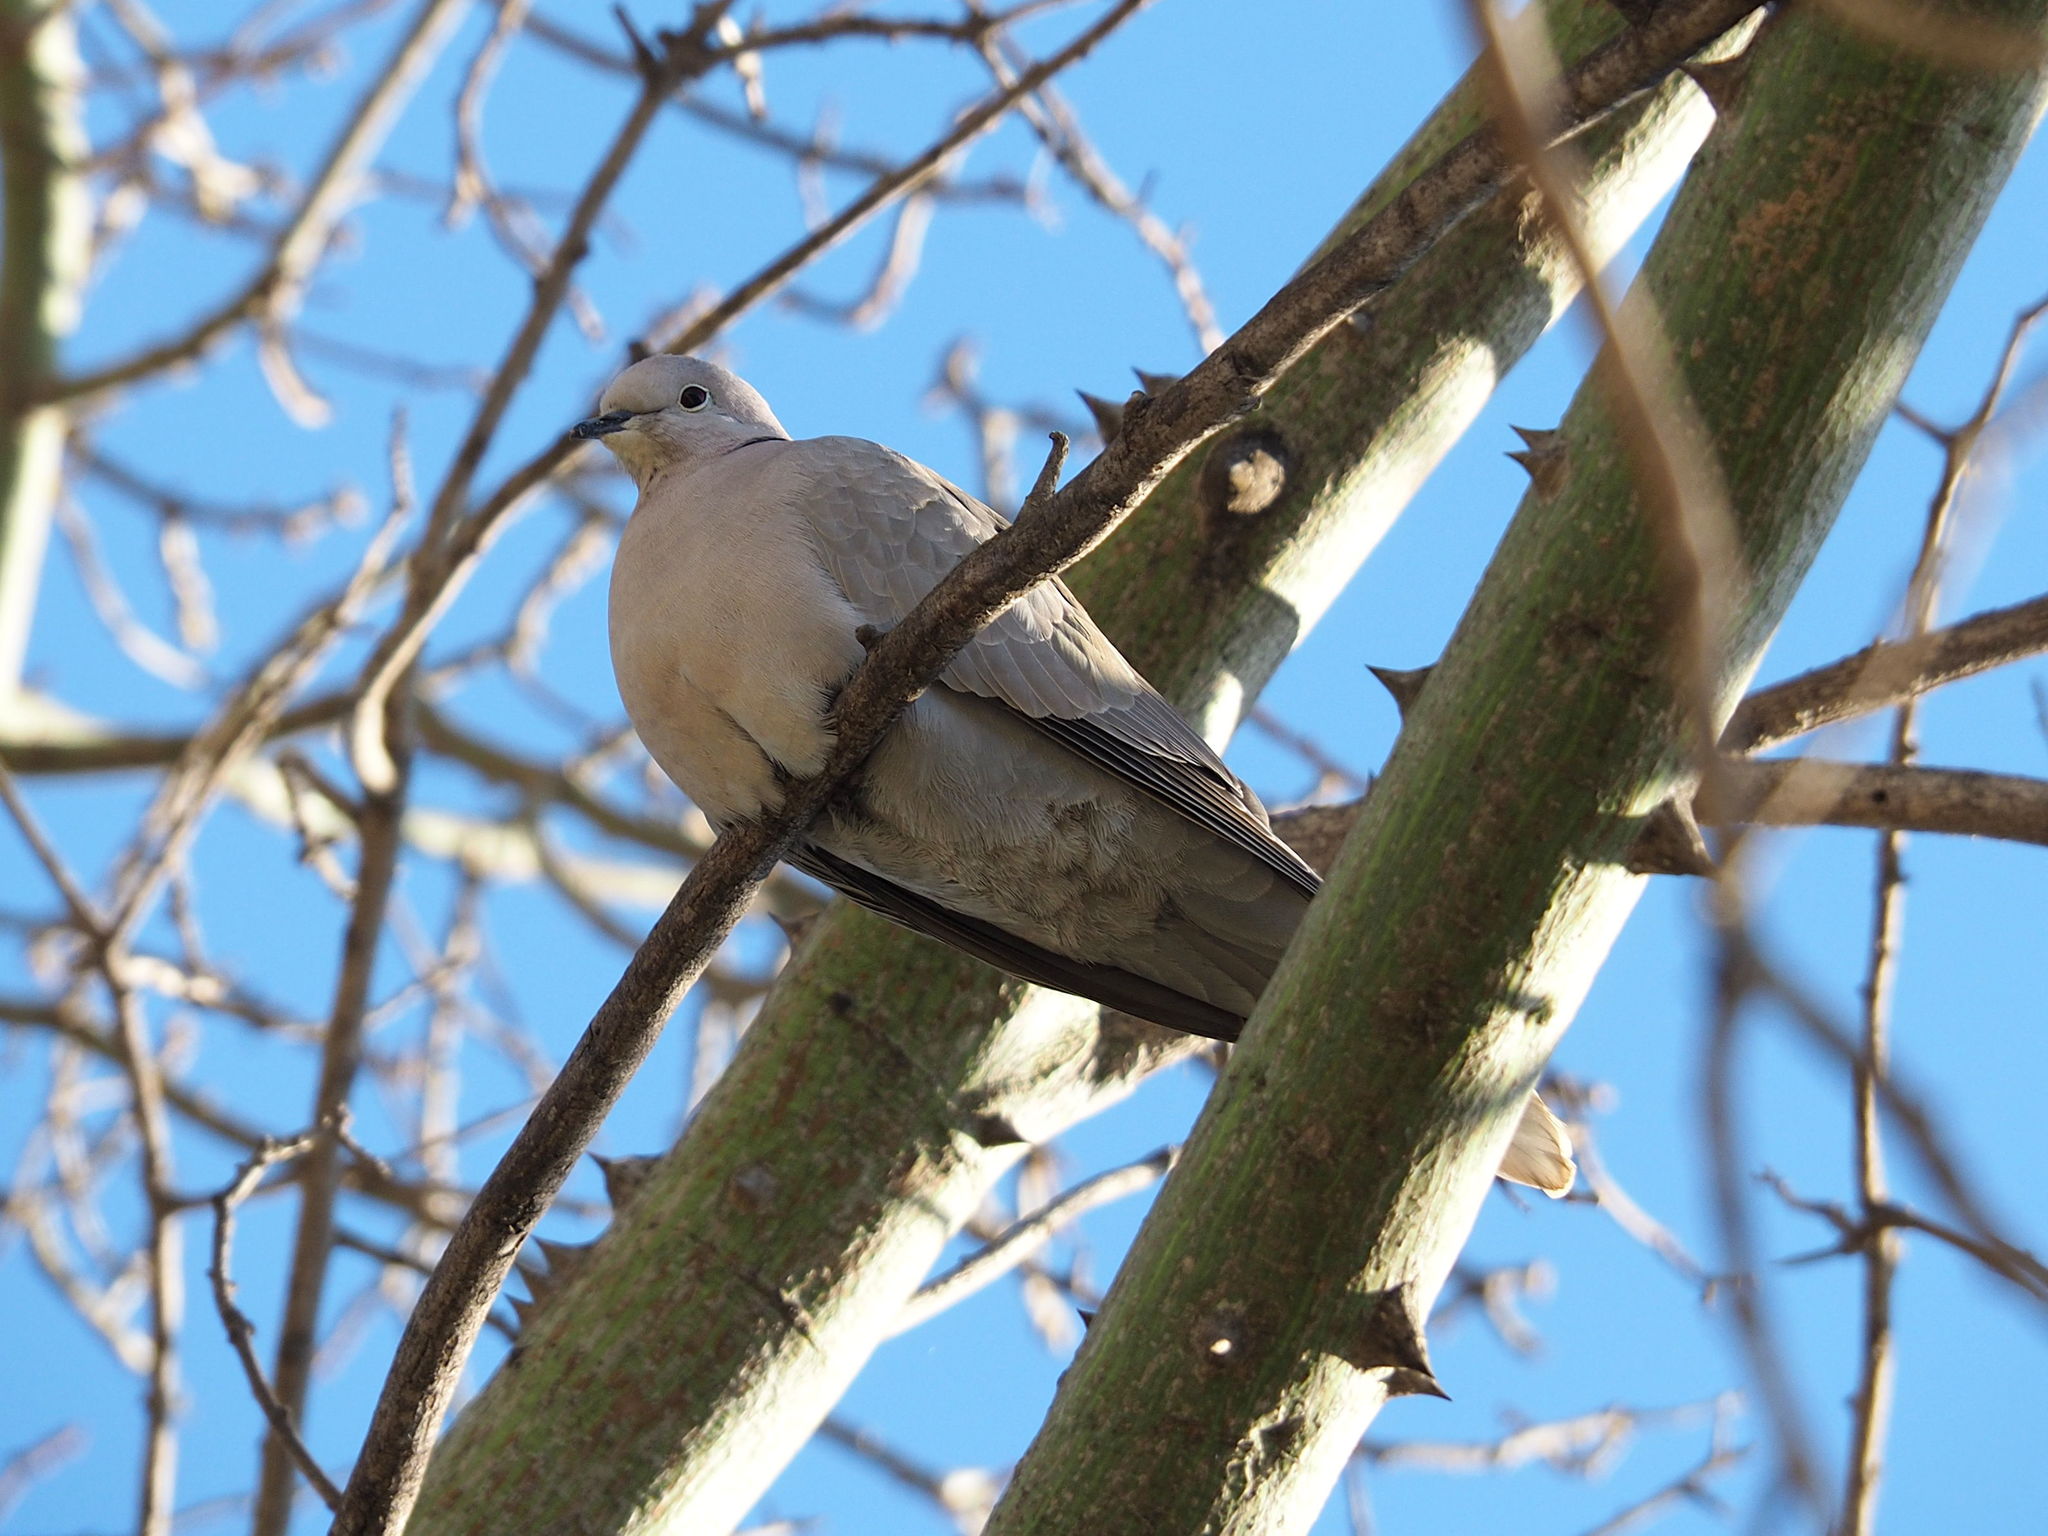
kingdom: Animalia
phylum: Chordata
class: Aves
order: Columbiformes
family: Columbidae
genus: Streptopelia
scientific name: Streptopelia decaocto
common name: Eurasian collared dove
